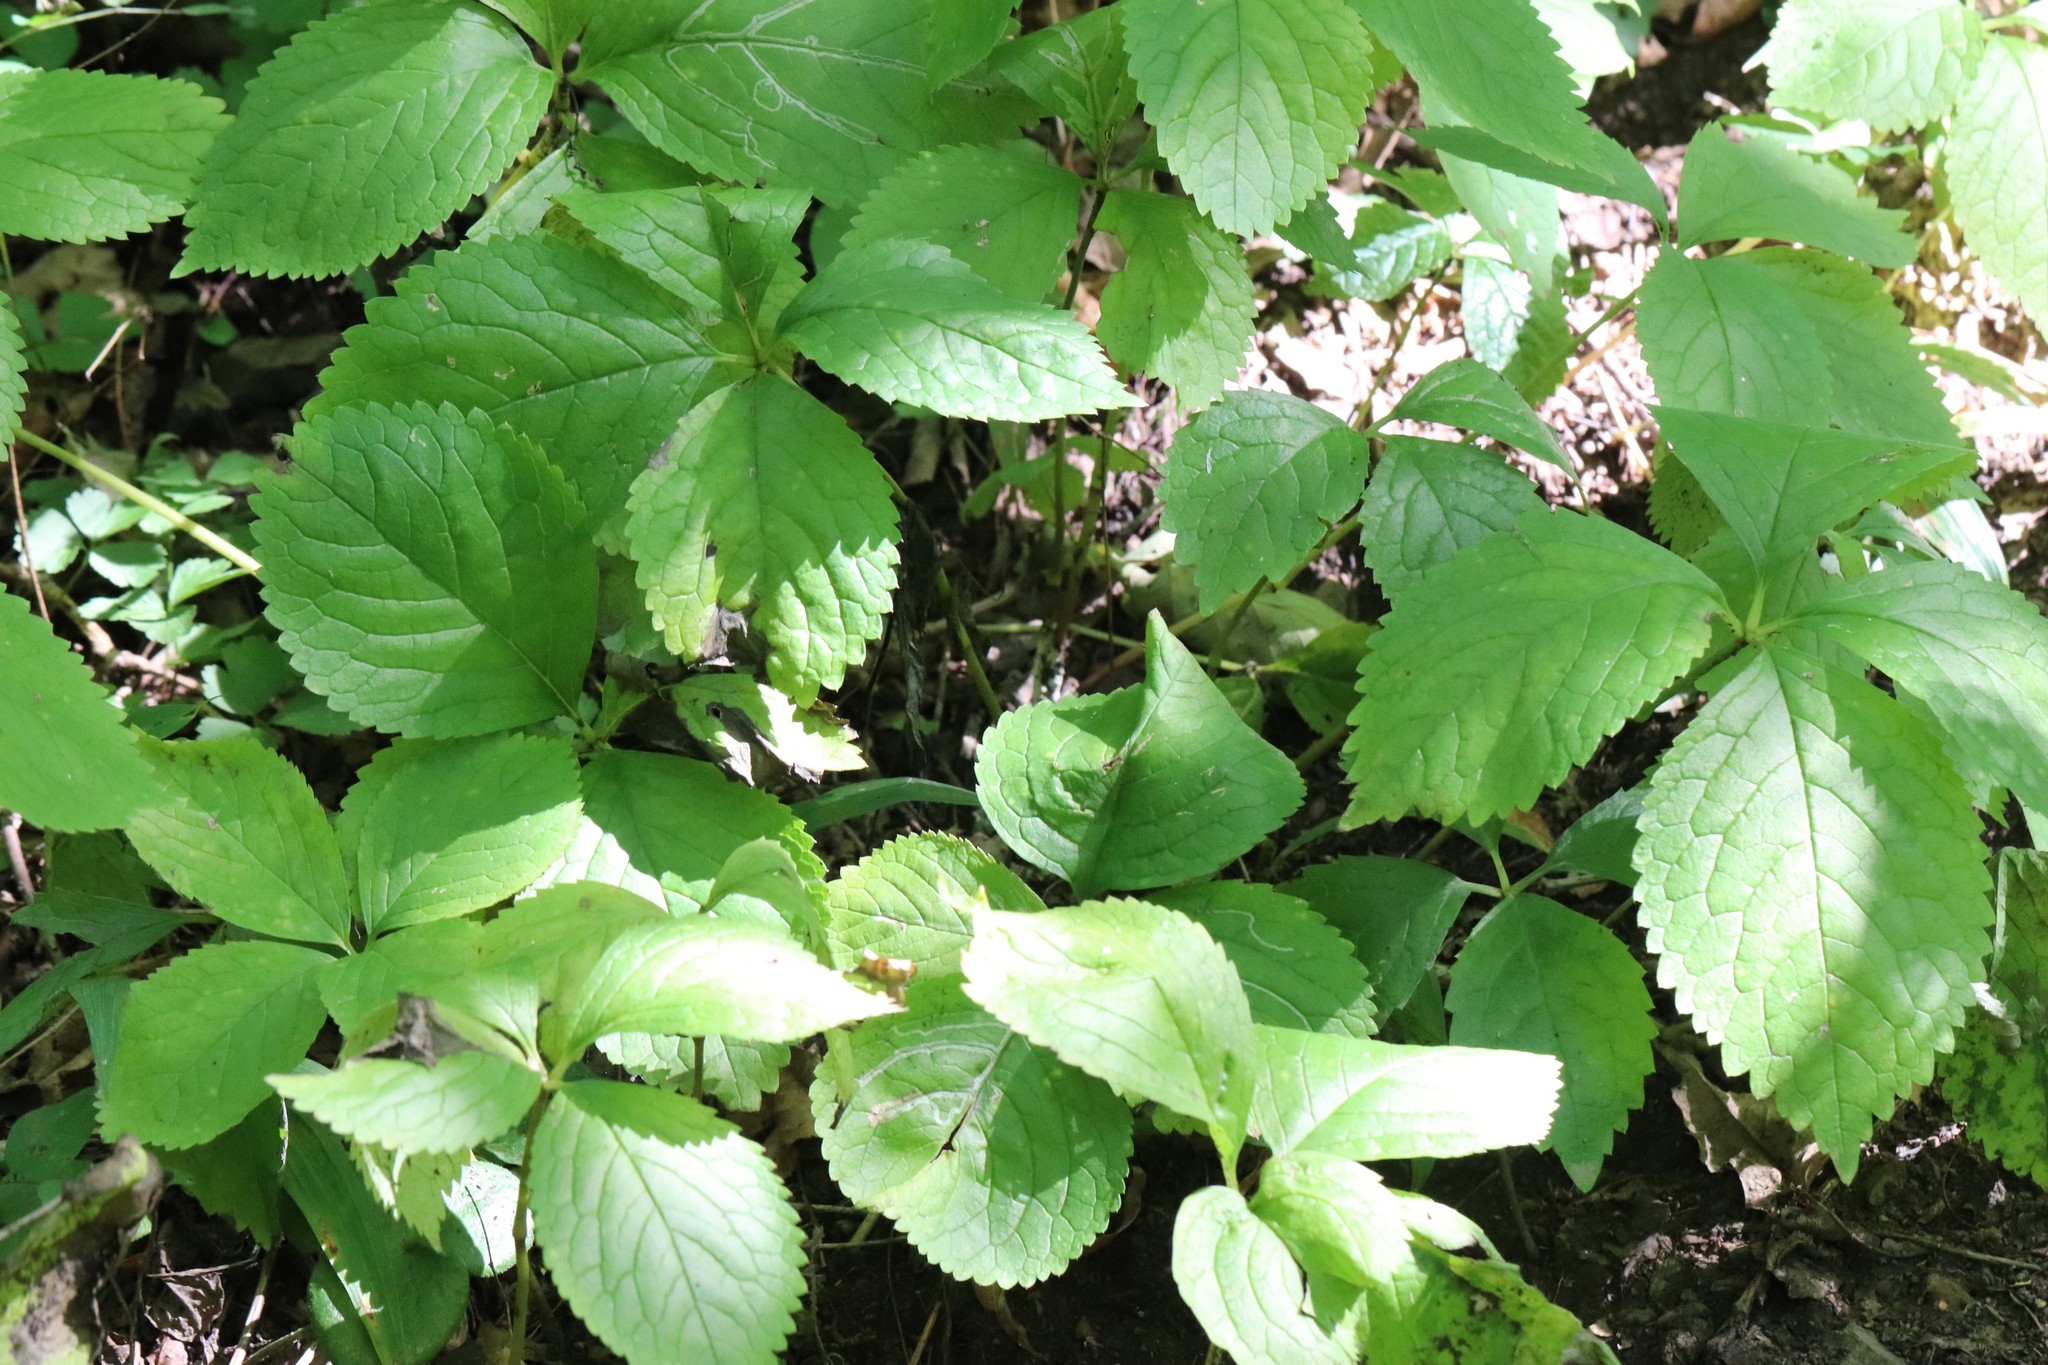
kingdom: Plantae
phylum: Tracheophyta
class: Magnoliopsida
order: Chloranthales
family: Chloranthaceae
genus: Chloranthus
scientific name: Chloranthus quadrifolius
